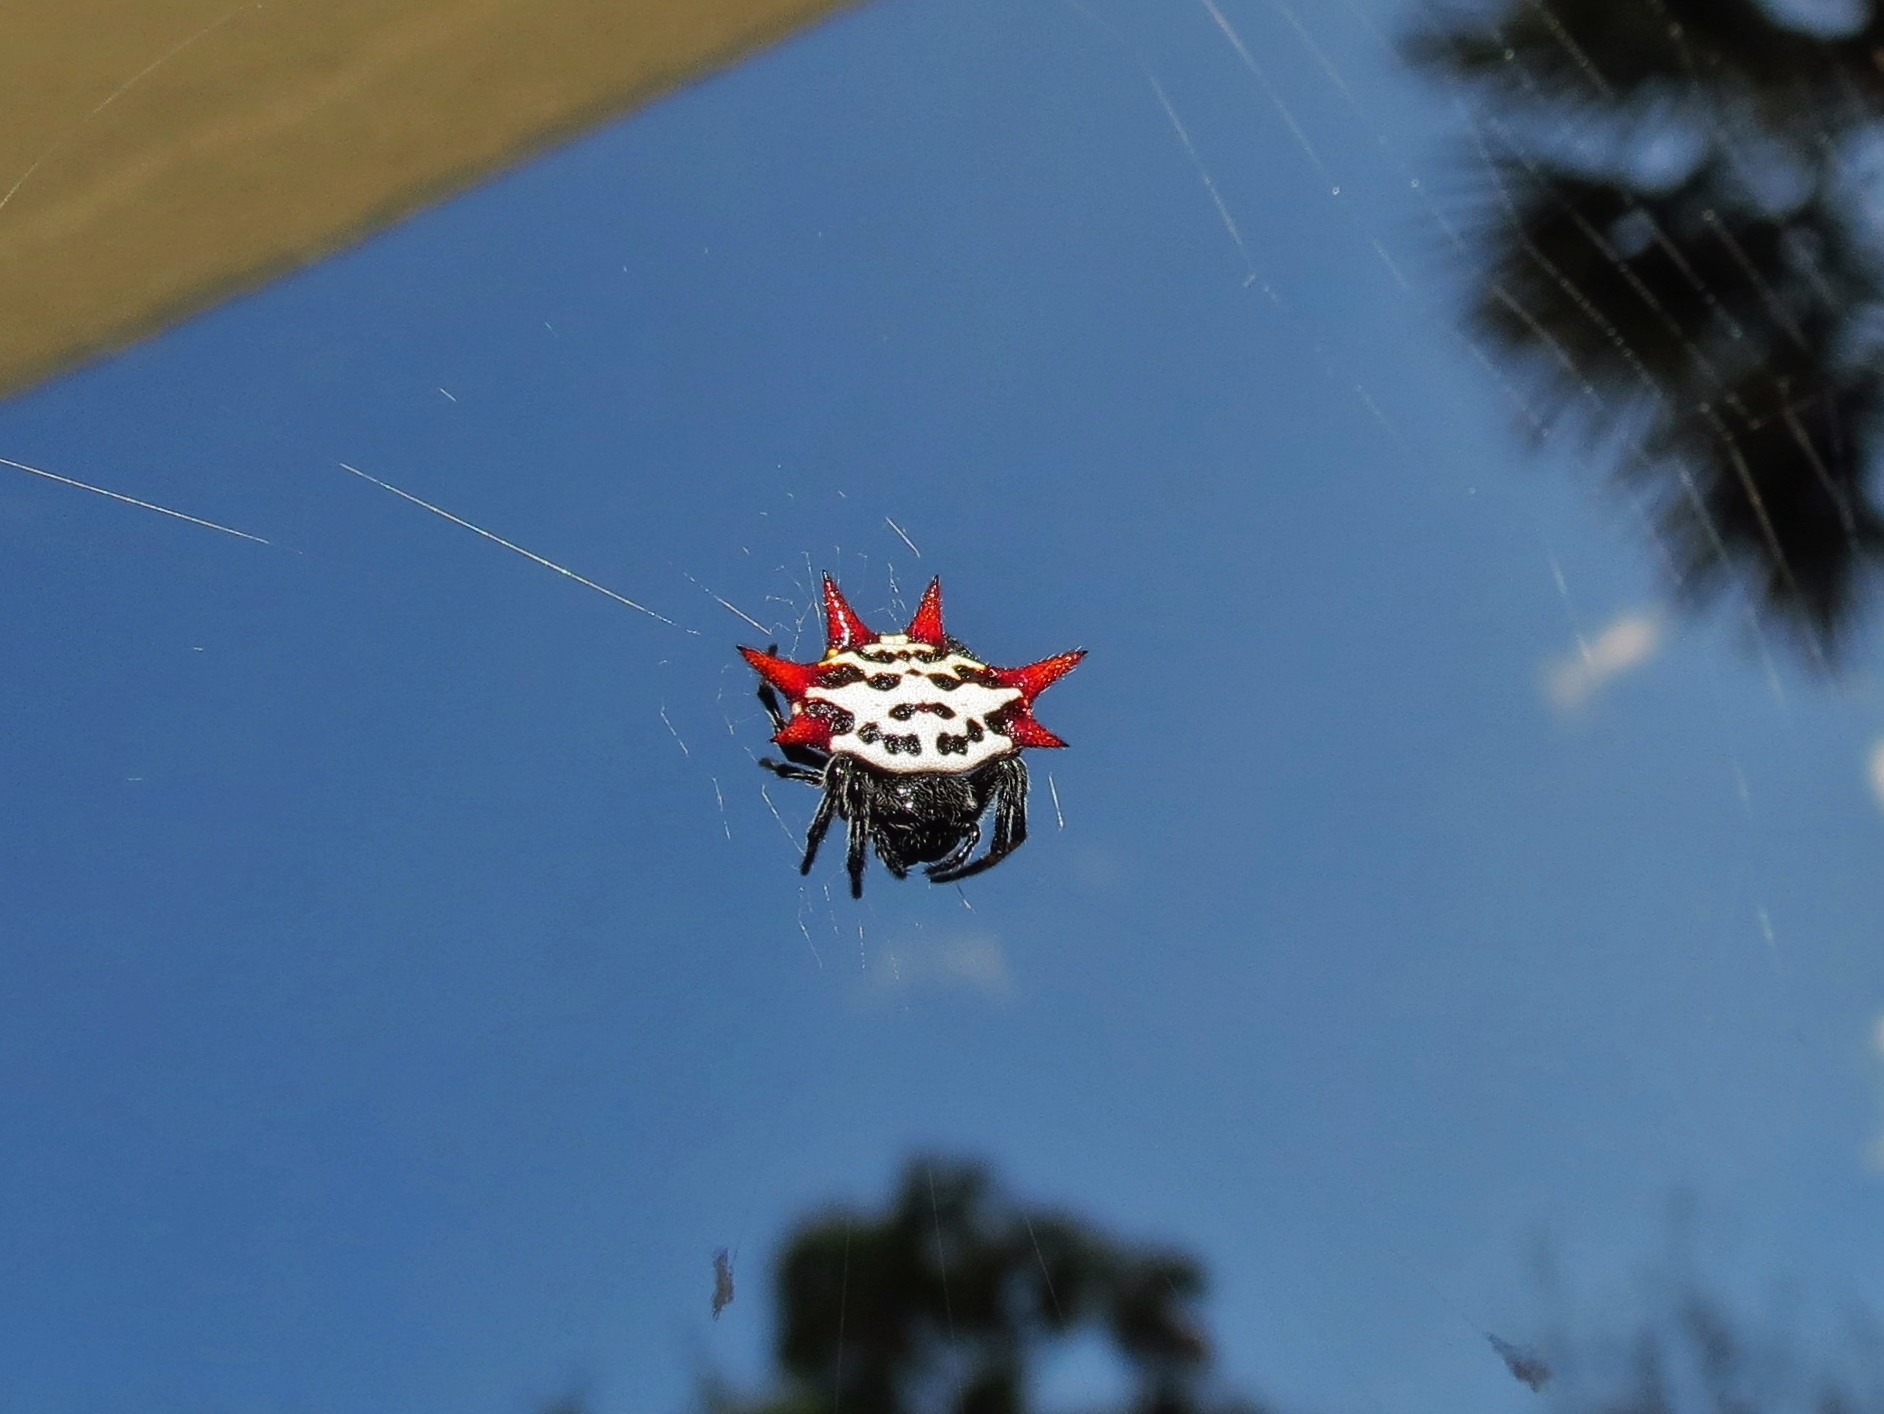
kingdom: Animalia
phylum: Arthropoda
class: Arachnida
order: Araneae
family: Araneidae
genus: Gasteracantha
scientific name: Gasteracantha cancriformis
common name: Orb weavers
